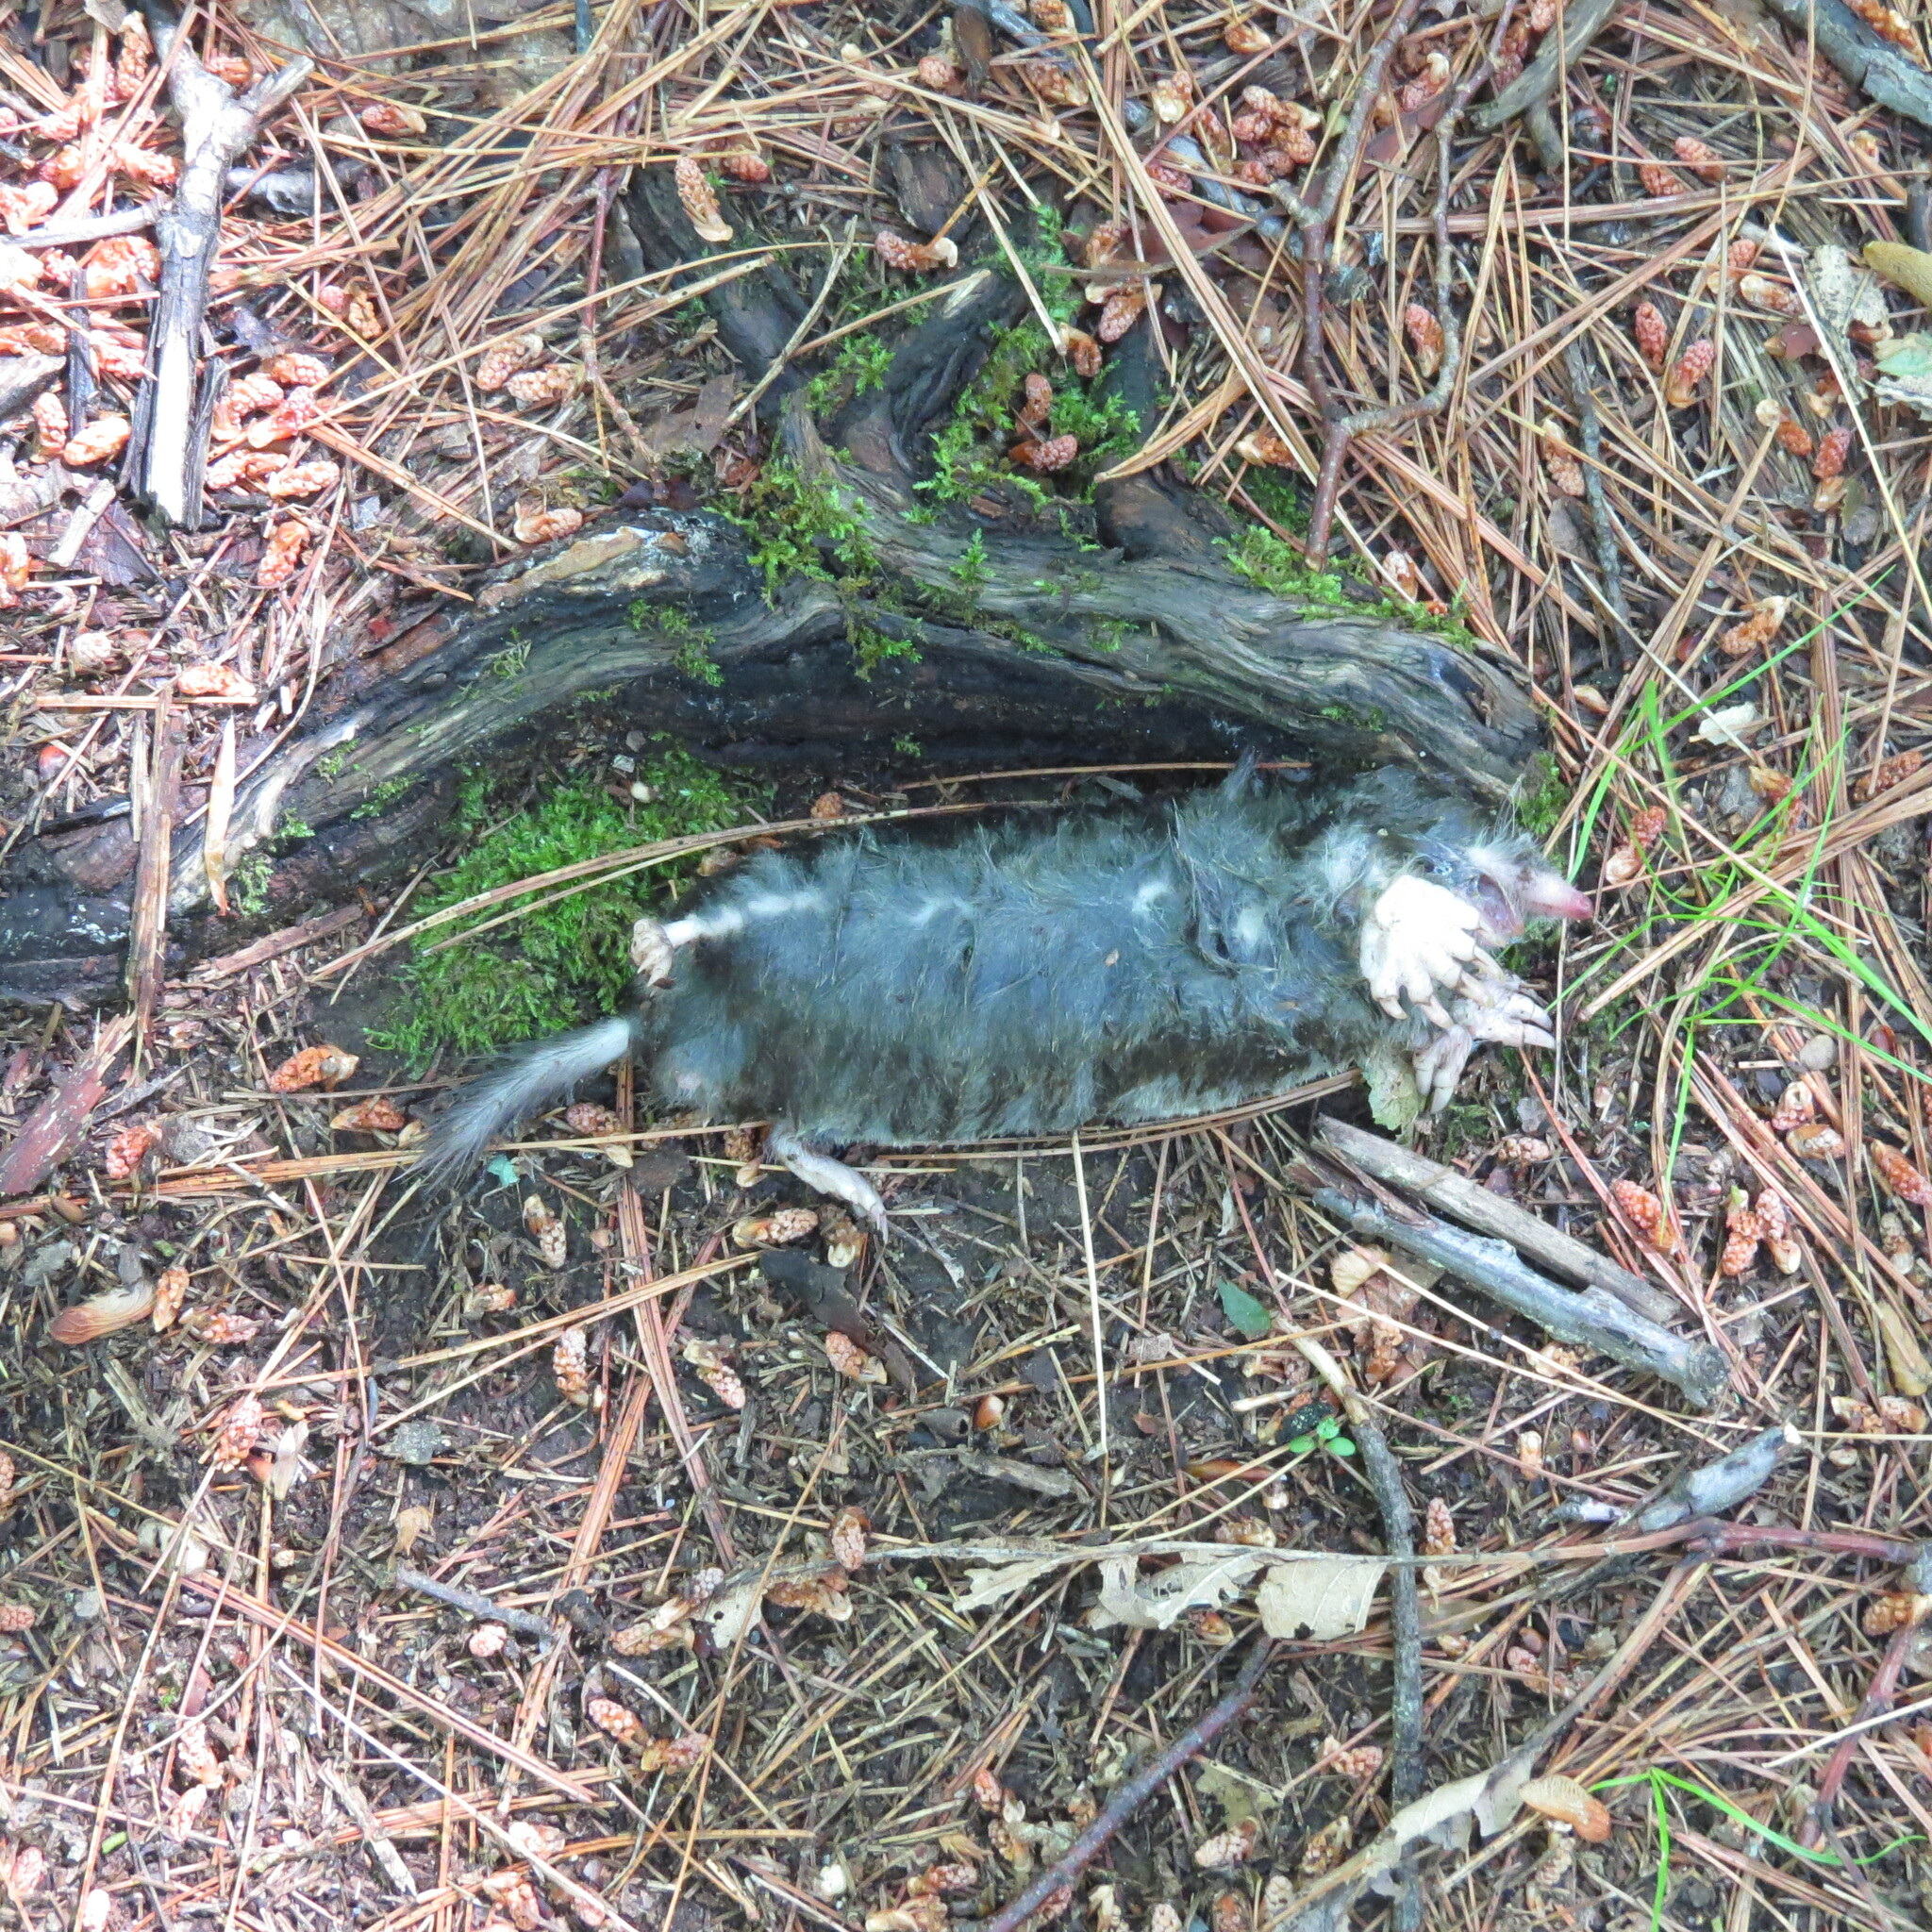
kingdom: Animalia
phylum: Chordata
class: Mammalia
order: Soricomorpha
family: Talpidae
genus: Parascalops
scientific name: Parascalops breweri
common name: Hairy-tailed mole
